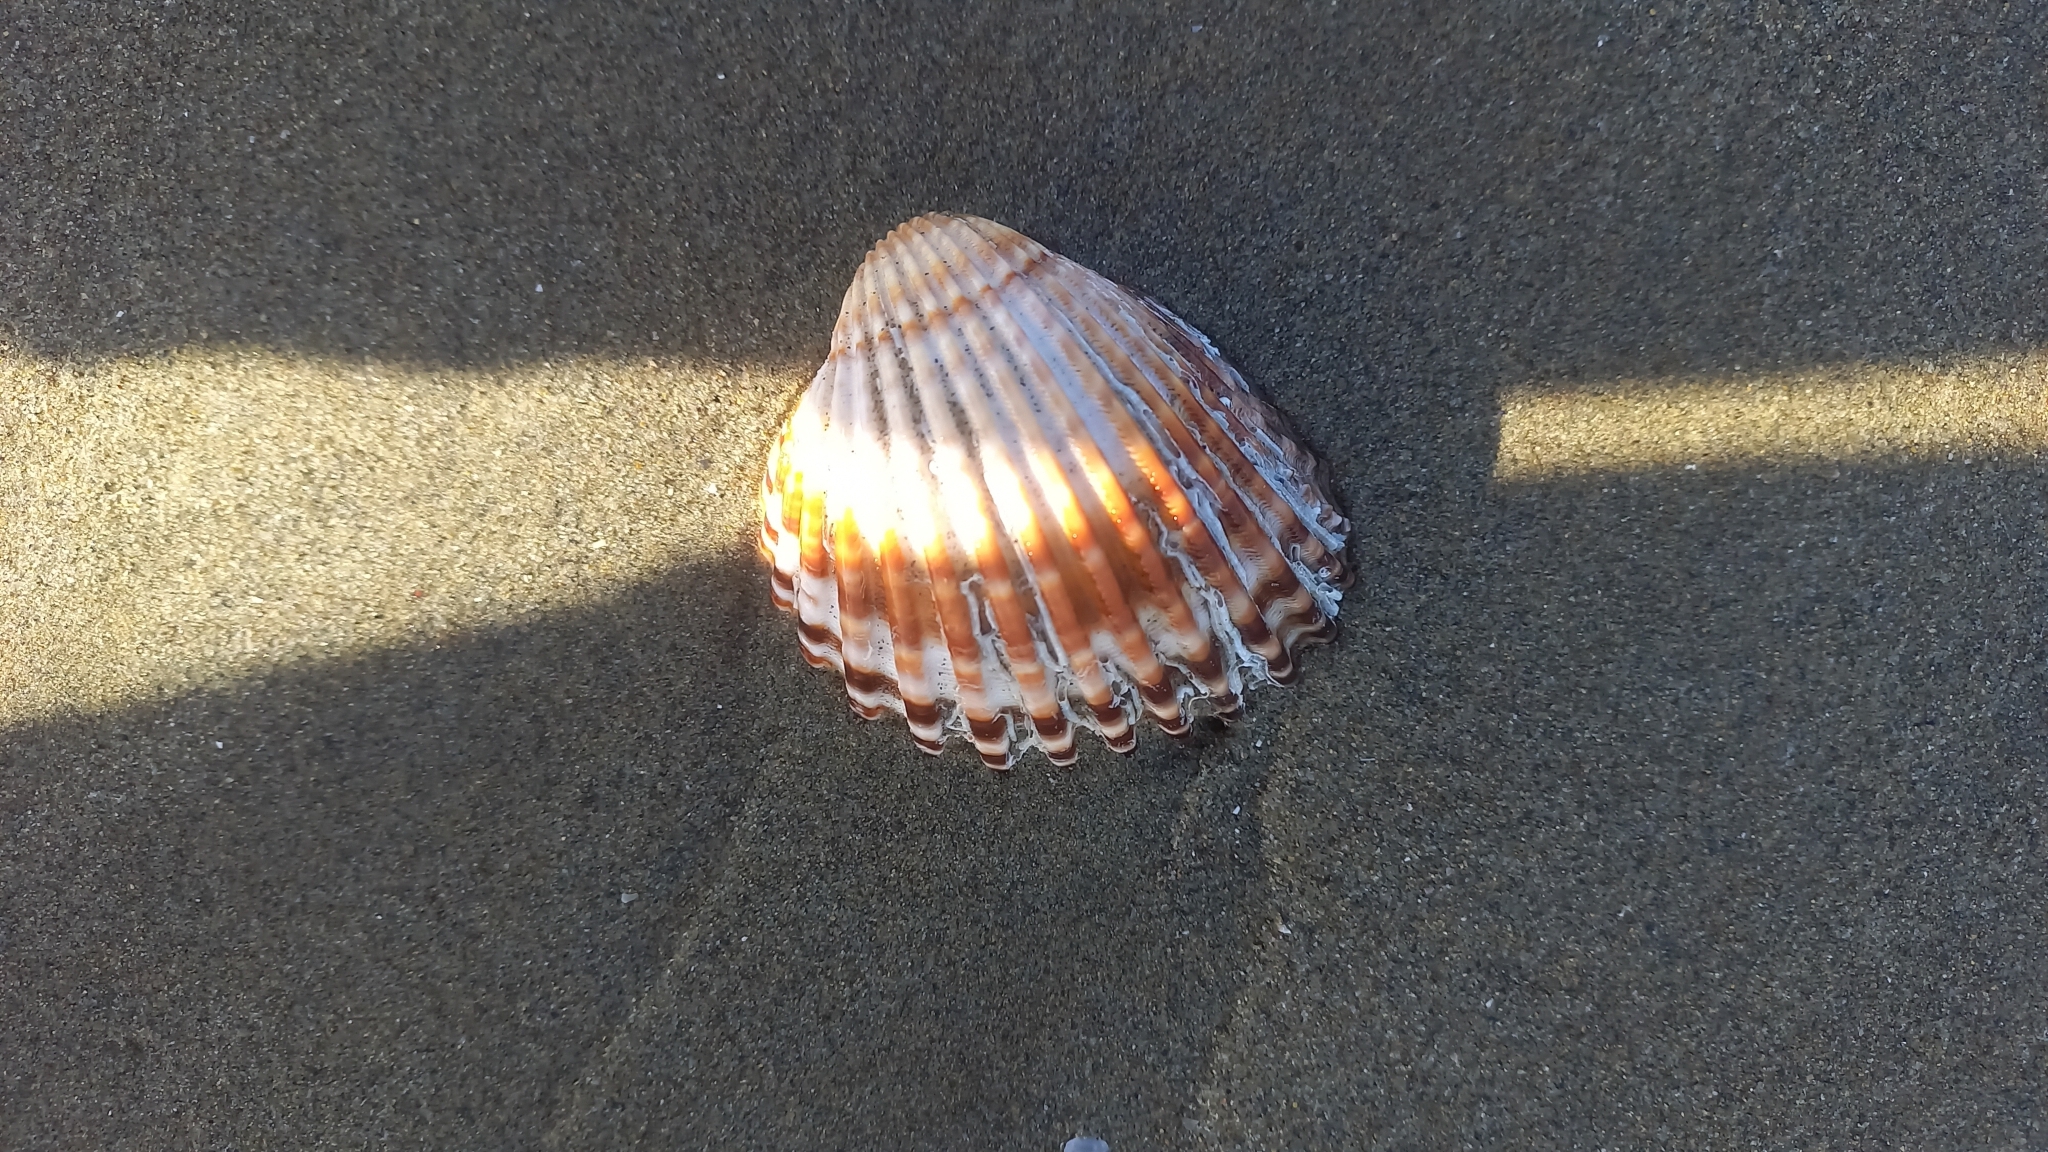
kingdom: Animalia
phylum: Mollusca
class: Bivalvia
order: Cardiida
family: Cardiidae
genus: Acanthocardia
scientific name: Acanthocardia tuberculata
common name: Rough cockle
